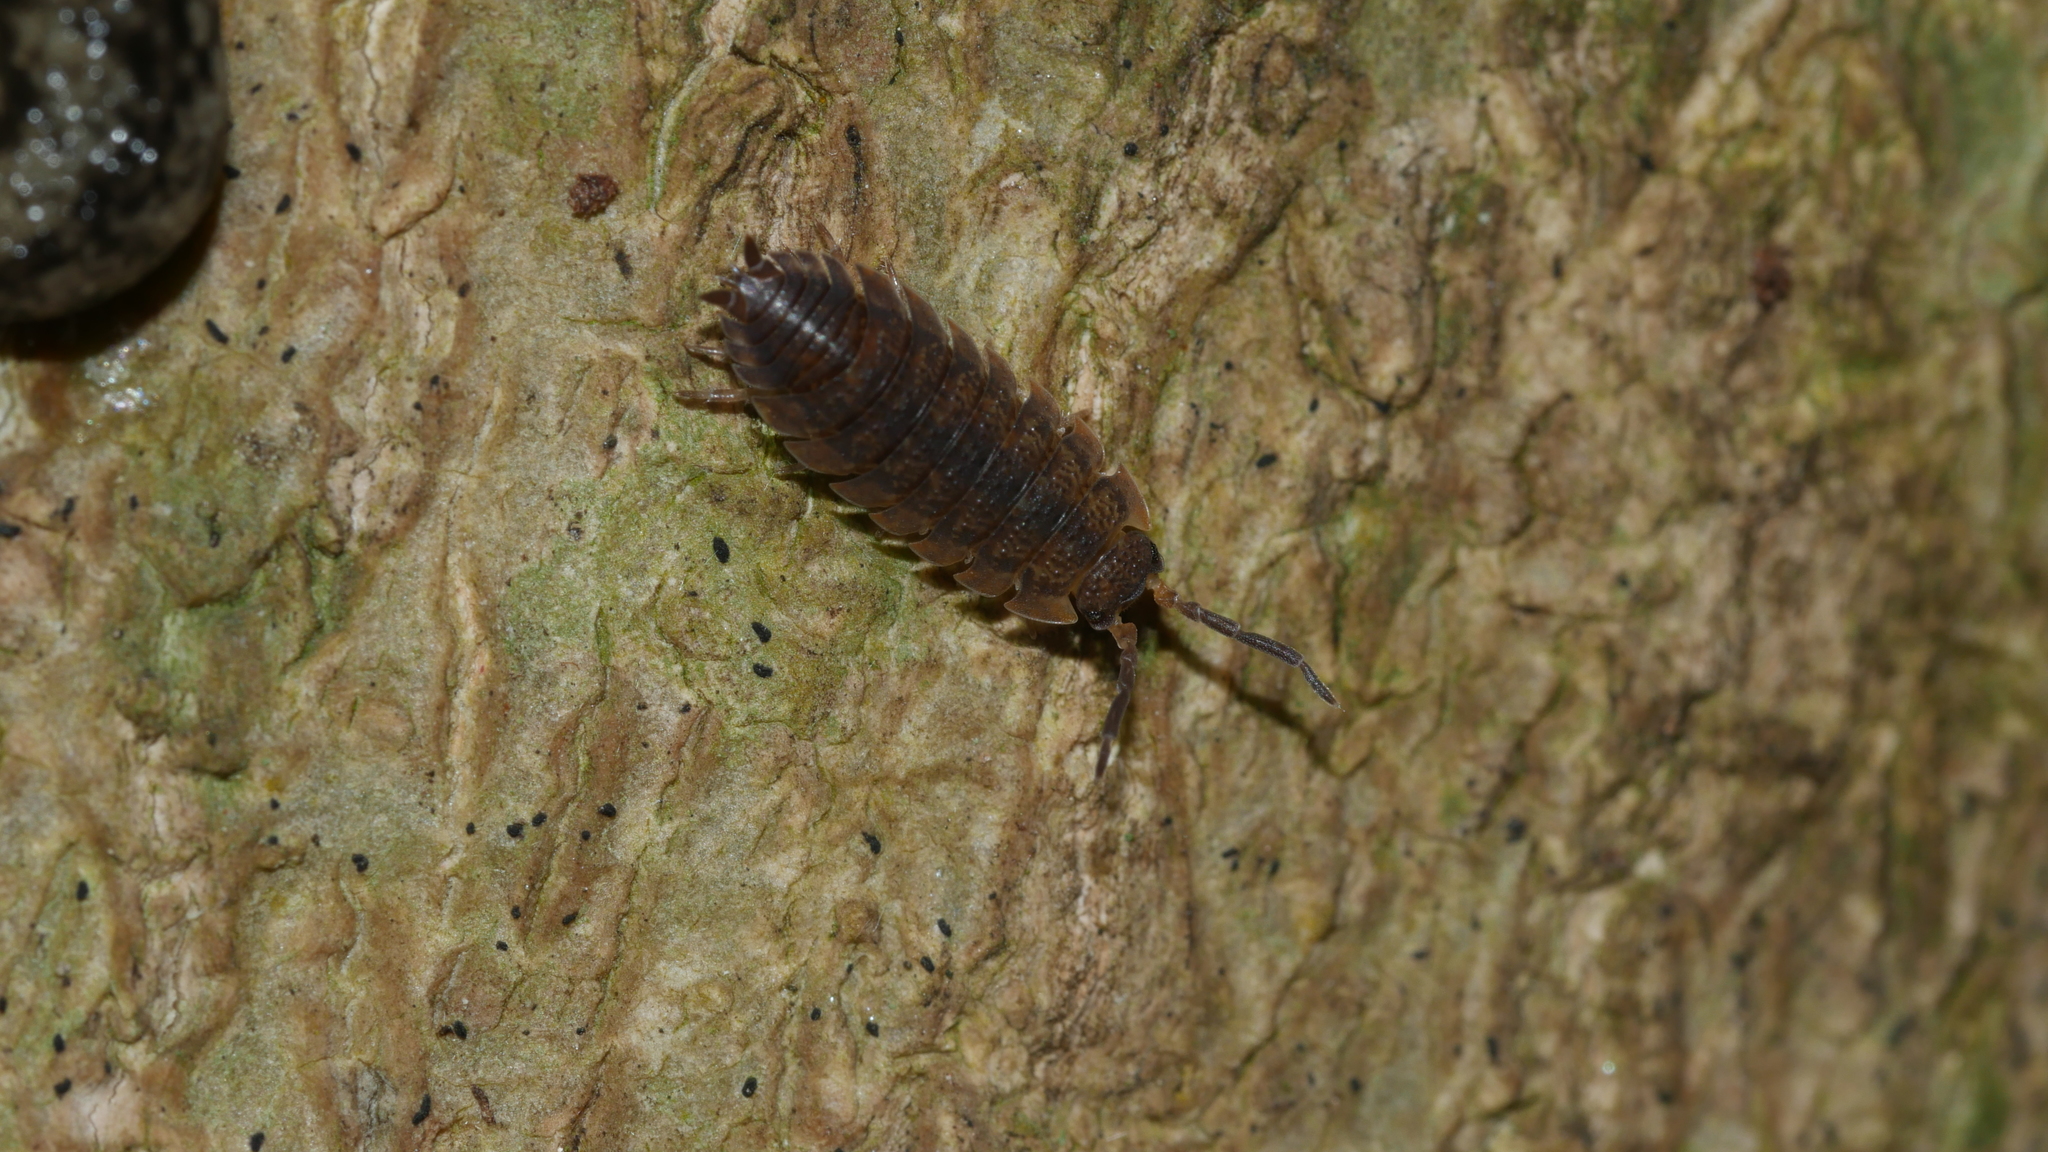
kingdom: Animalia
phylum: Arthropoda
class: Malacostraca
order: Isopoda
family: Porcellionidae
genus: Porcellio
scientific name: Porcellio scaber
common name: Common rough woodlouse
